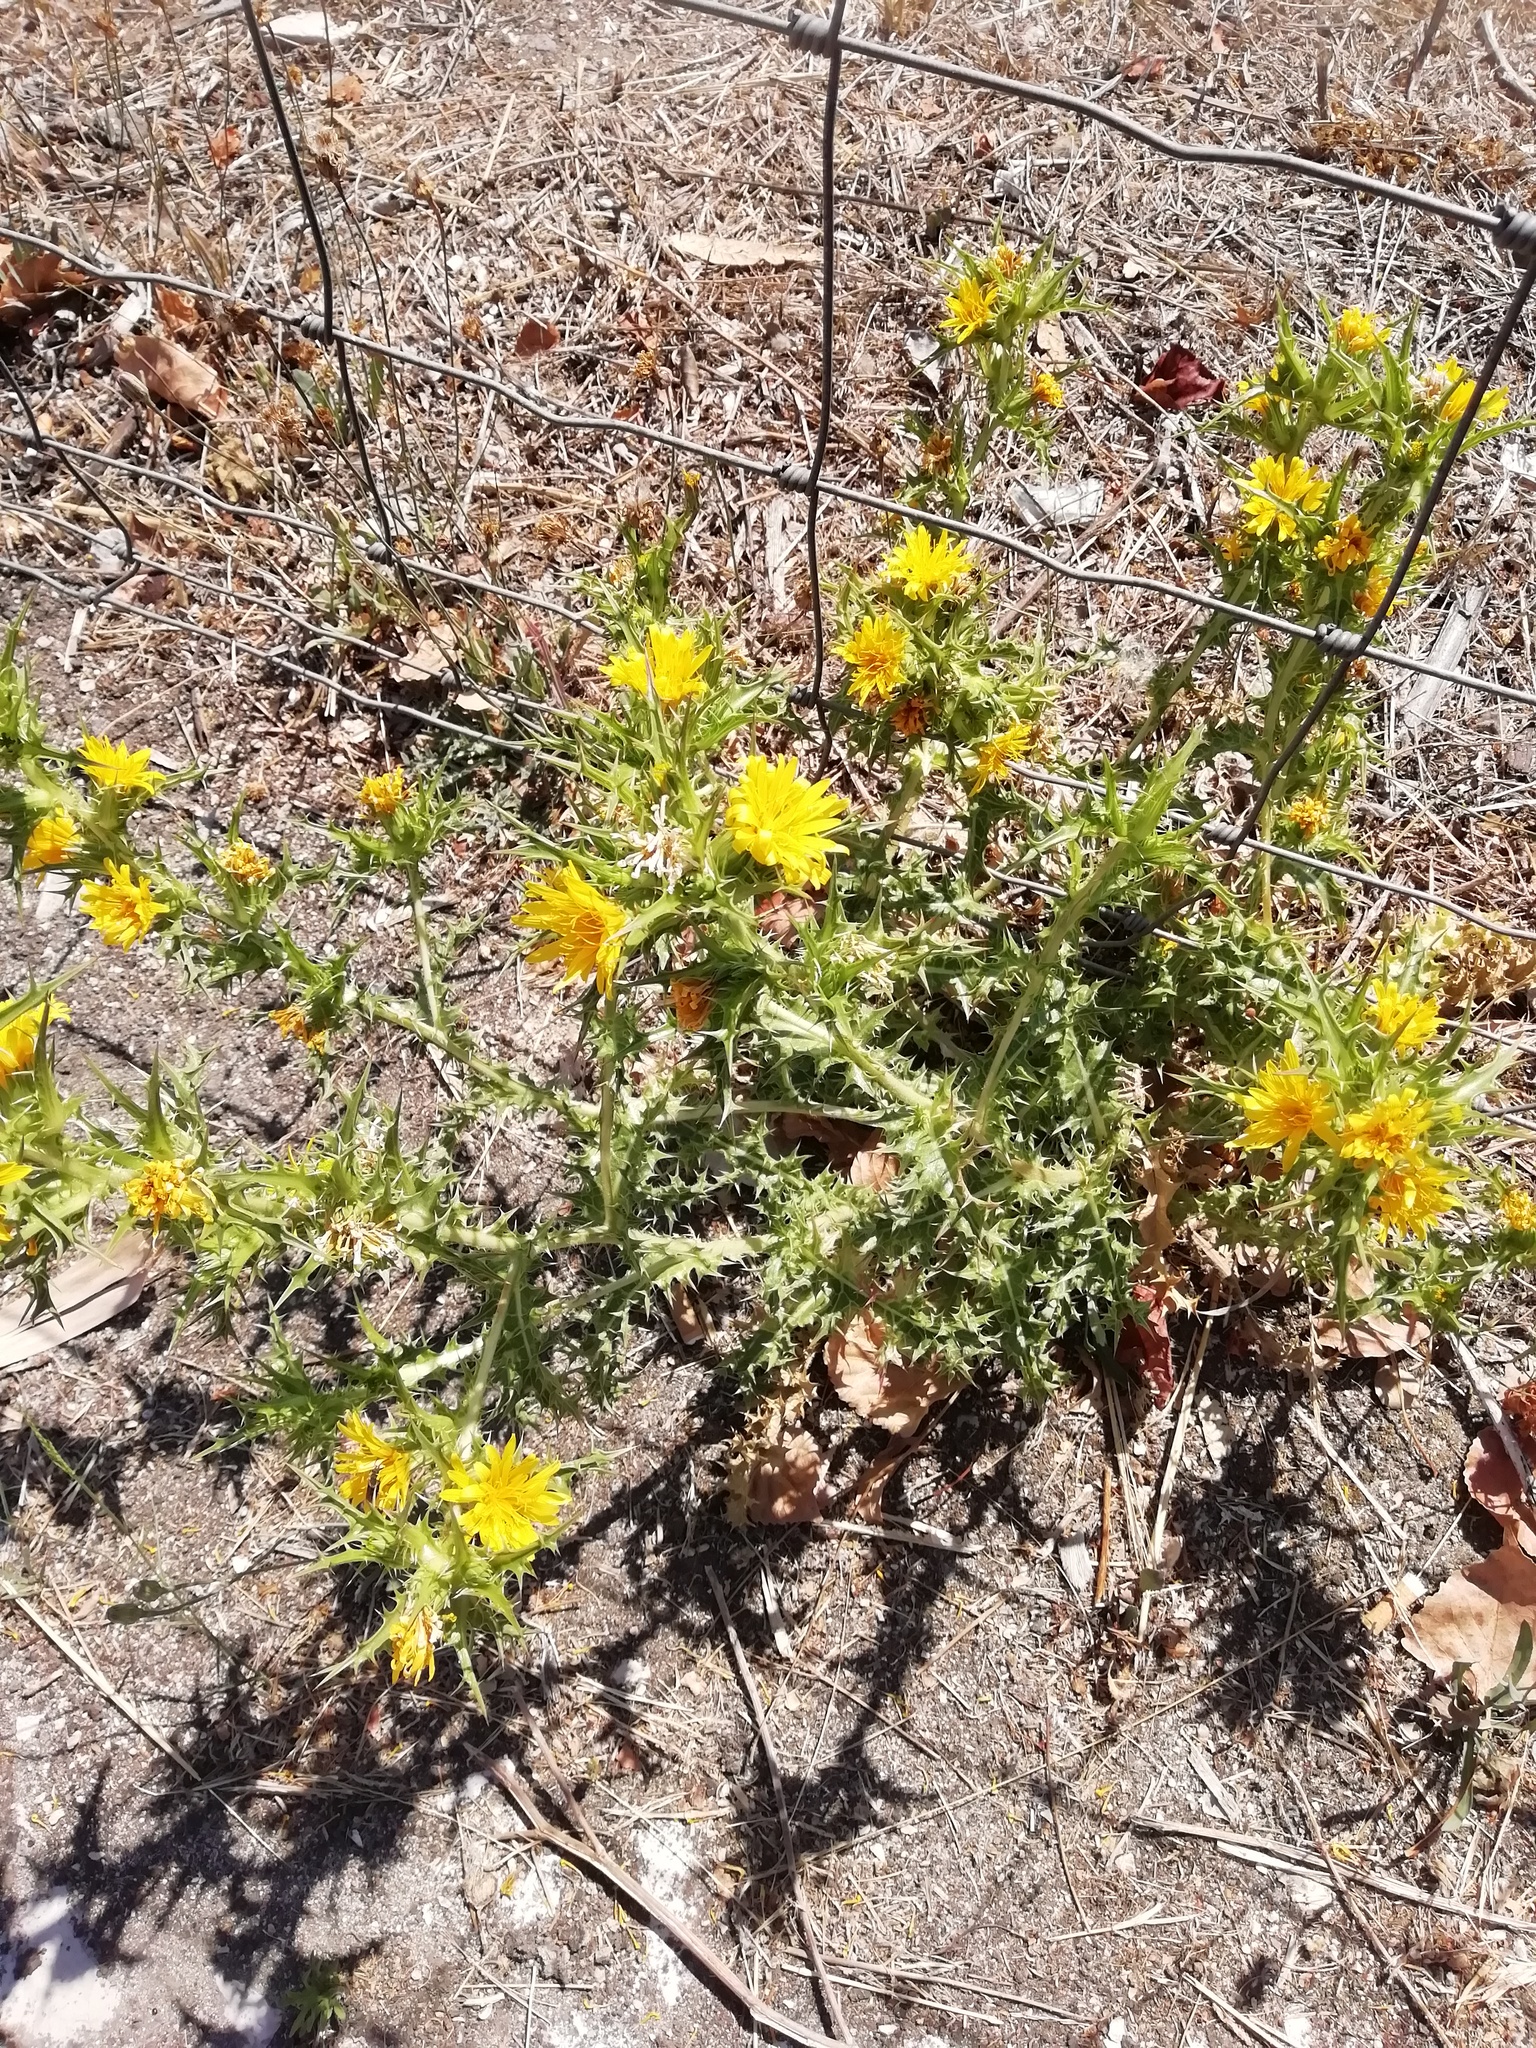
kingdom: Plantae
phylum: Tracheophyta
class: Magnoliopsida
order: Asterales
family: Asteraceae
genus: Scolymus
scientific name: Scolymus hispanicus
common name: Golden thistle
